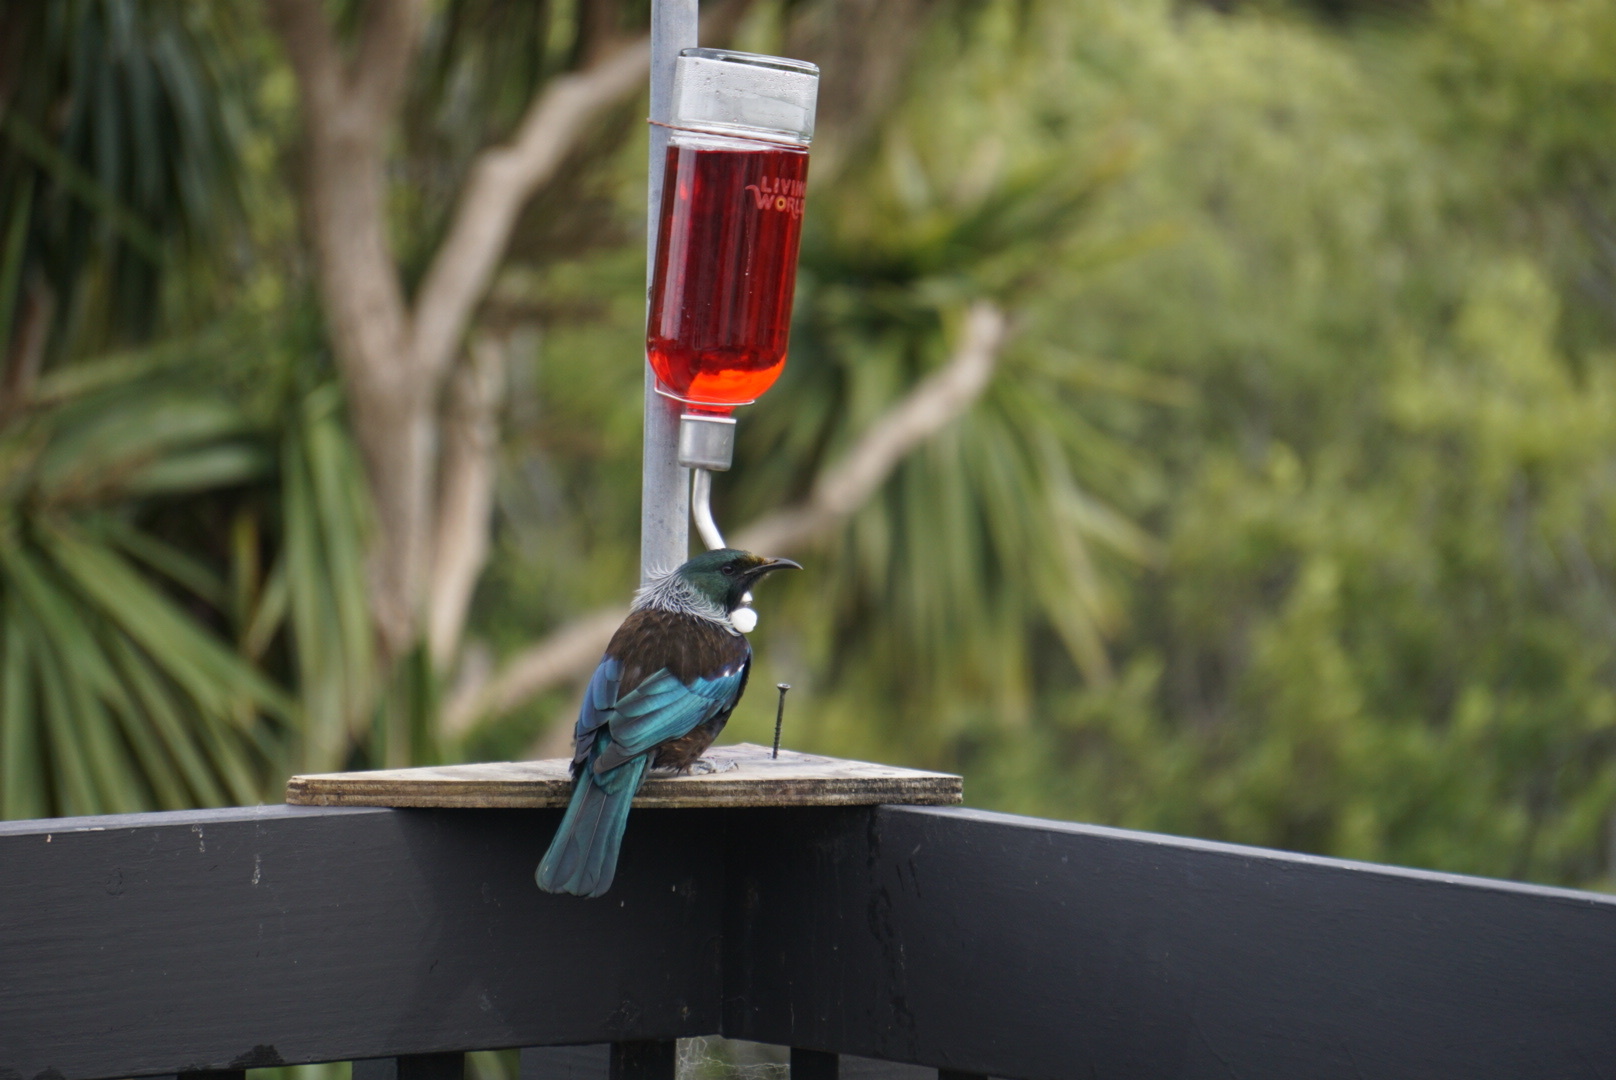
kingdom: Animalia
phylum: Chordata
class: Aves
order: Passeriformes
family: Meliphagidae
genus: Prosthemadera
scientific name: Prosthemadera novaeseelandiae
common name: Tui
